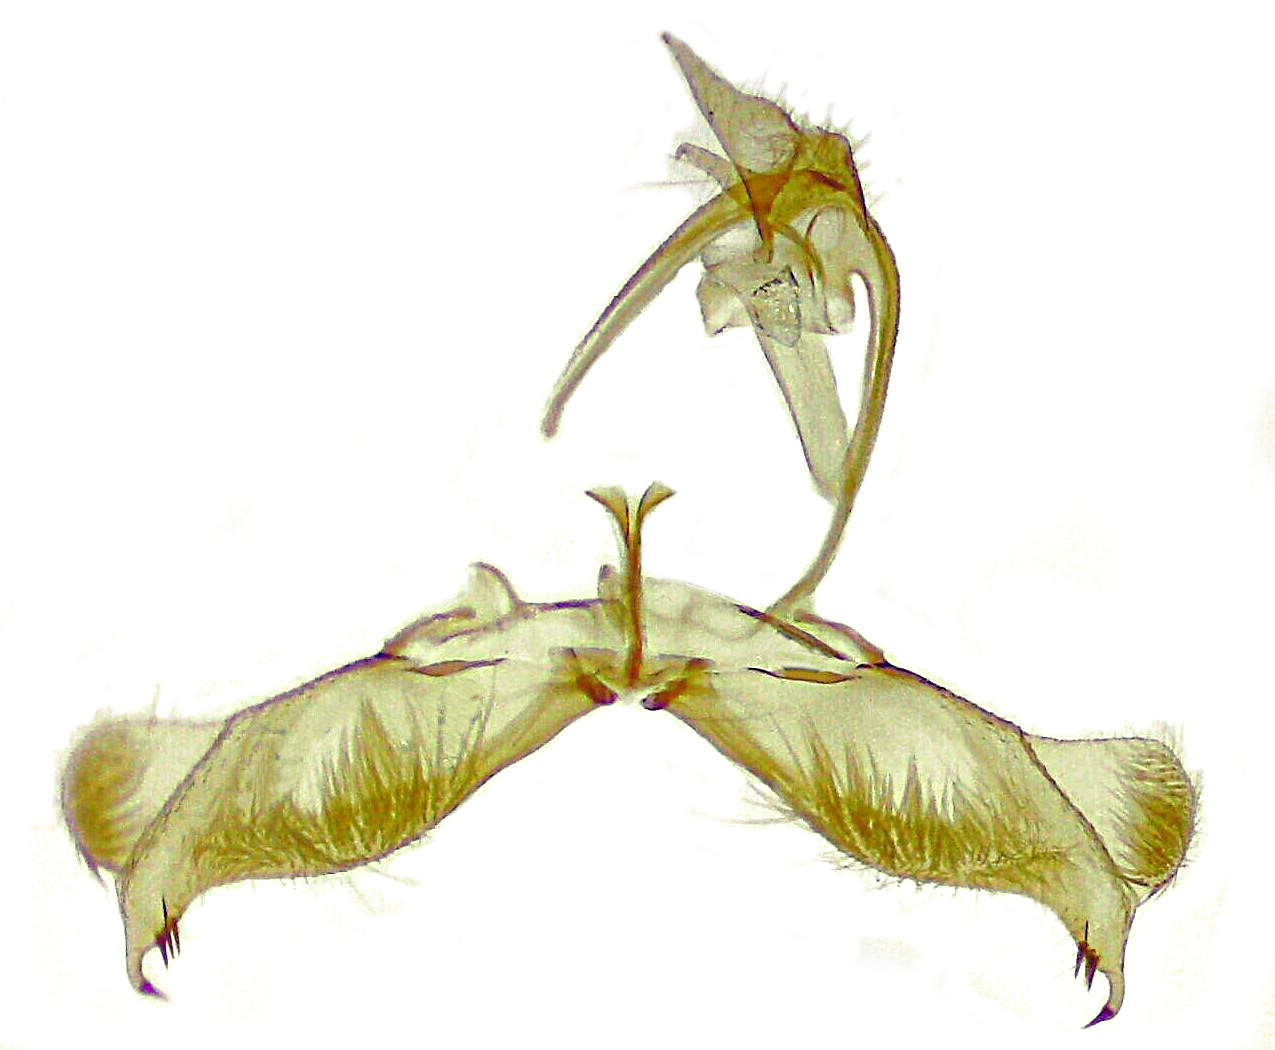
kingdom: Animalia
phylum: Arthropoda
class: Insecta
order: Lepidoptera
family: Tortricidae
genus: Gretchena
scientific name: Gretchena watchungana
